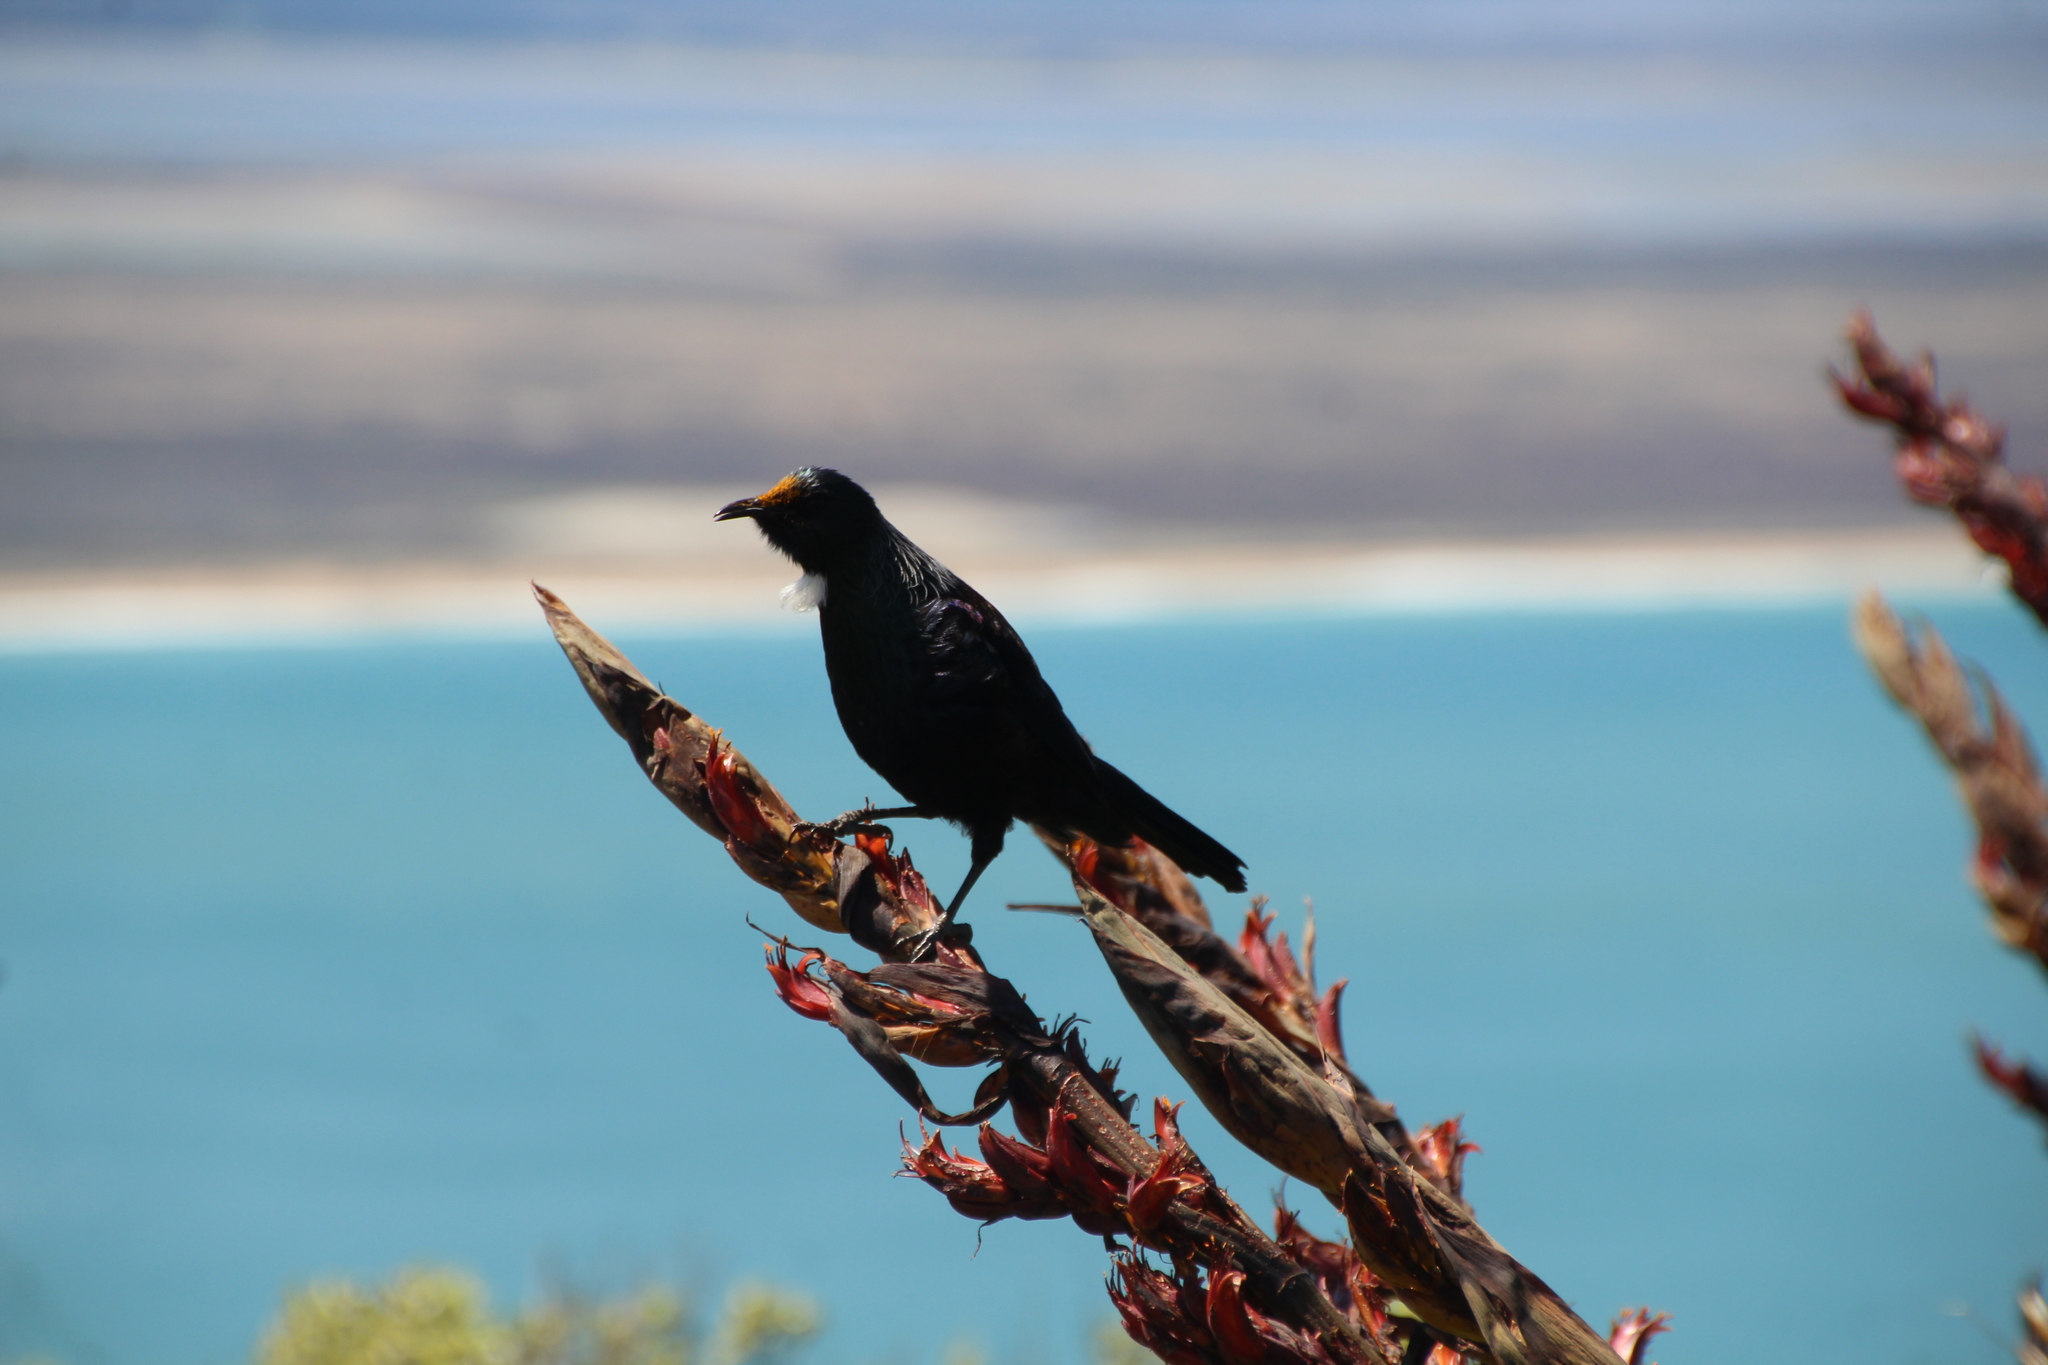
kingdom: Animalia
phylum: Chordata
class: Aves
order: Passeriformes
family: Meliphagidae
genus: Prosthemadera
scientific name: Prosthemadera novaeseelandiae
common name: Tui
